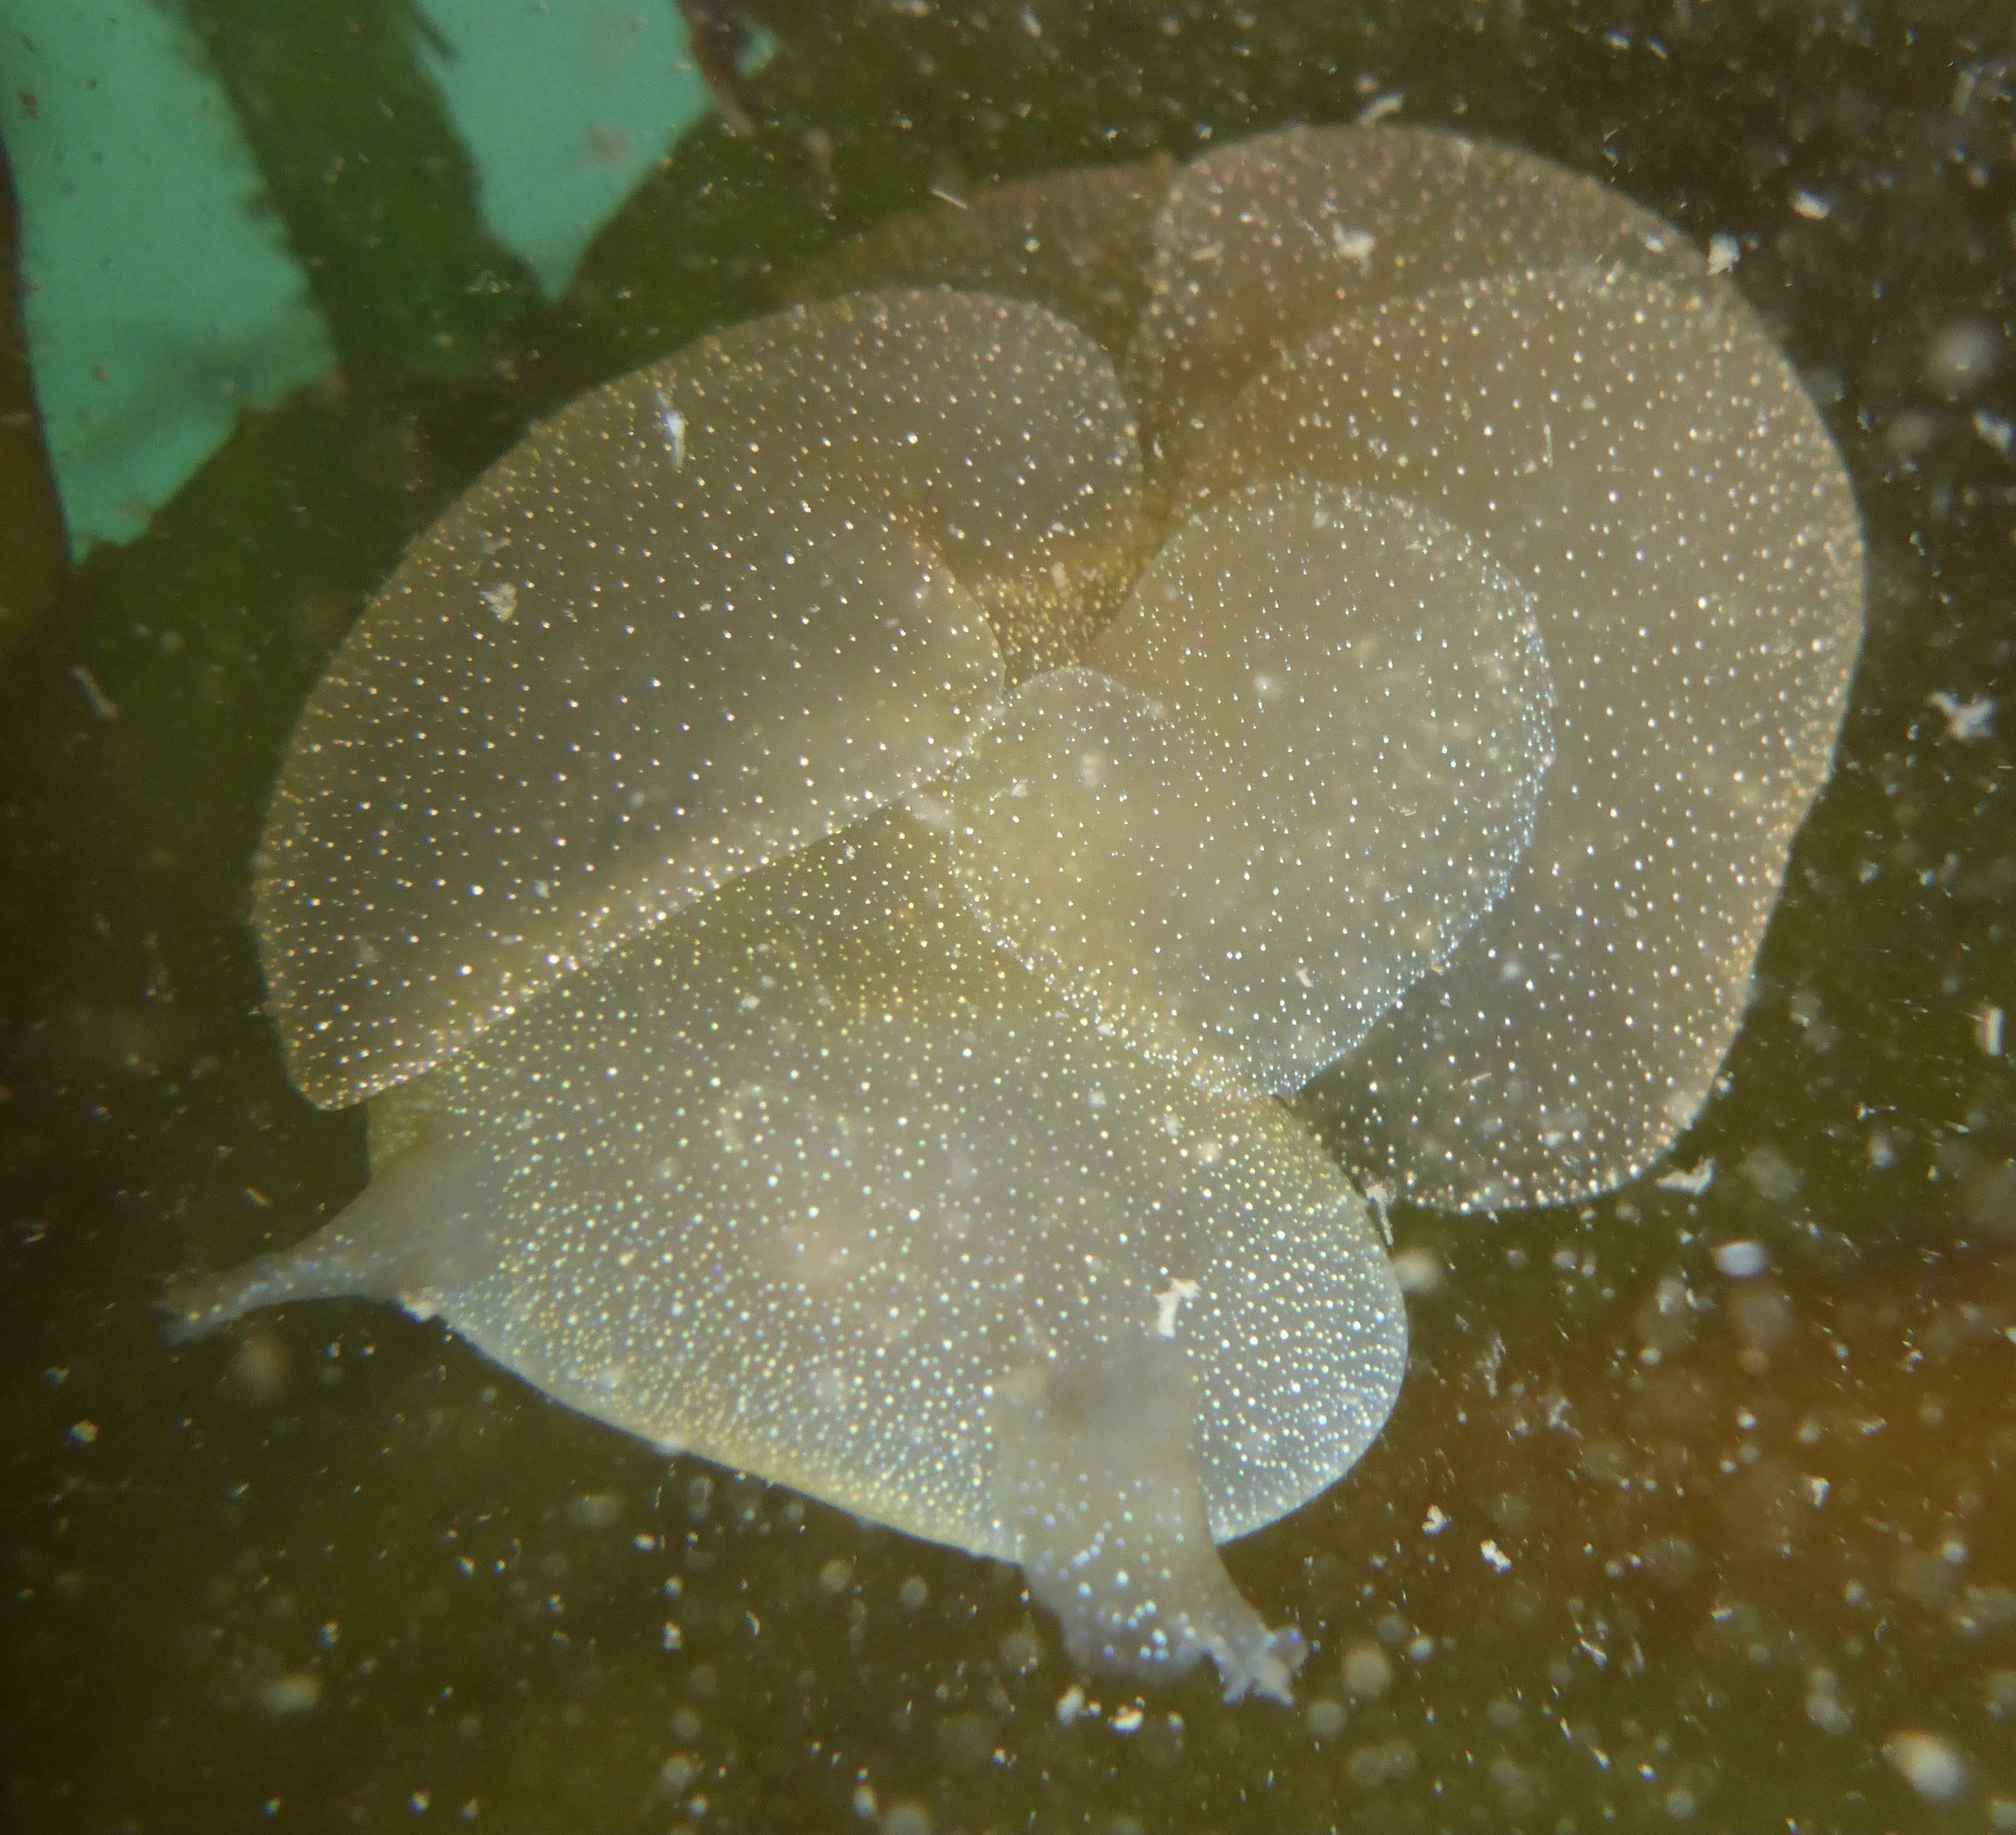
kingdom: Animalia
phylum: Mollusca
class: Gastropoda
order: Nudibranchia
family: Tethydidae
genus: Melibe
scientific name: Melibe leonina
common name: Lion nudibranch
